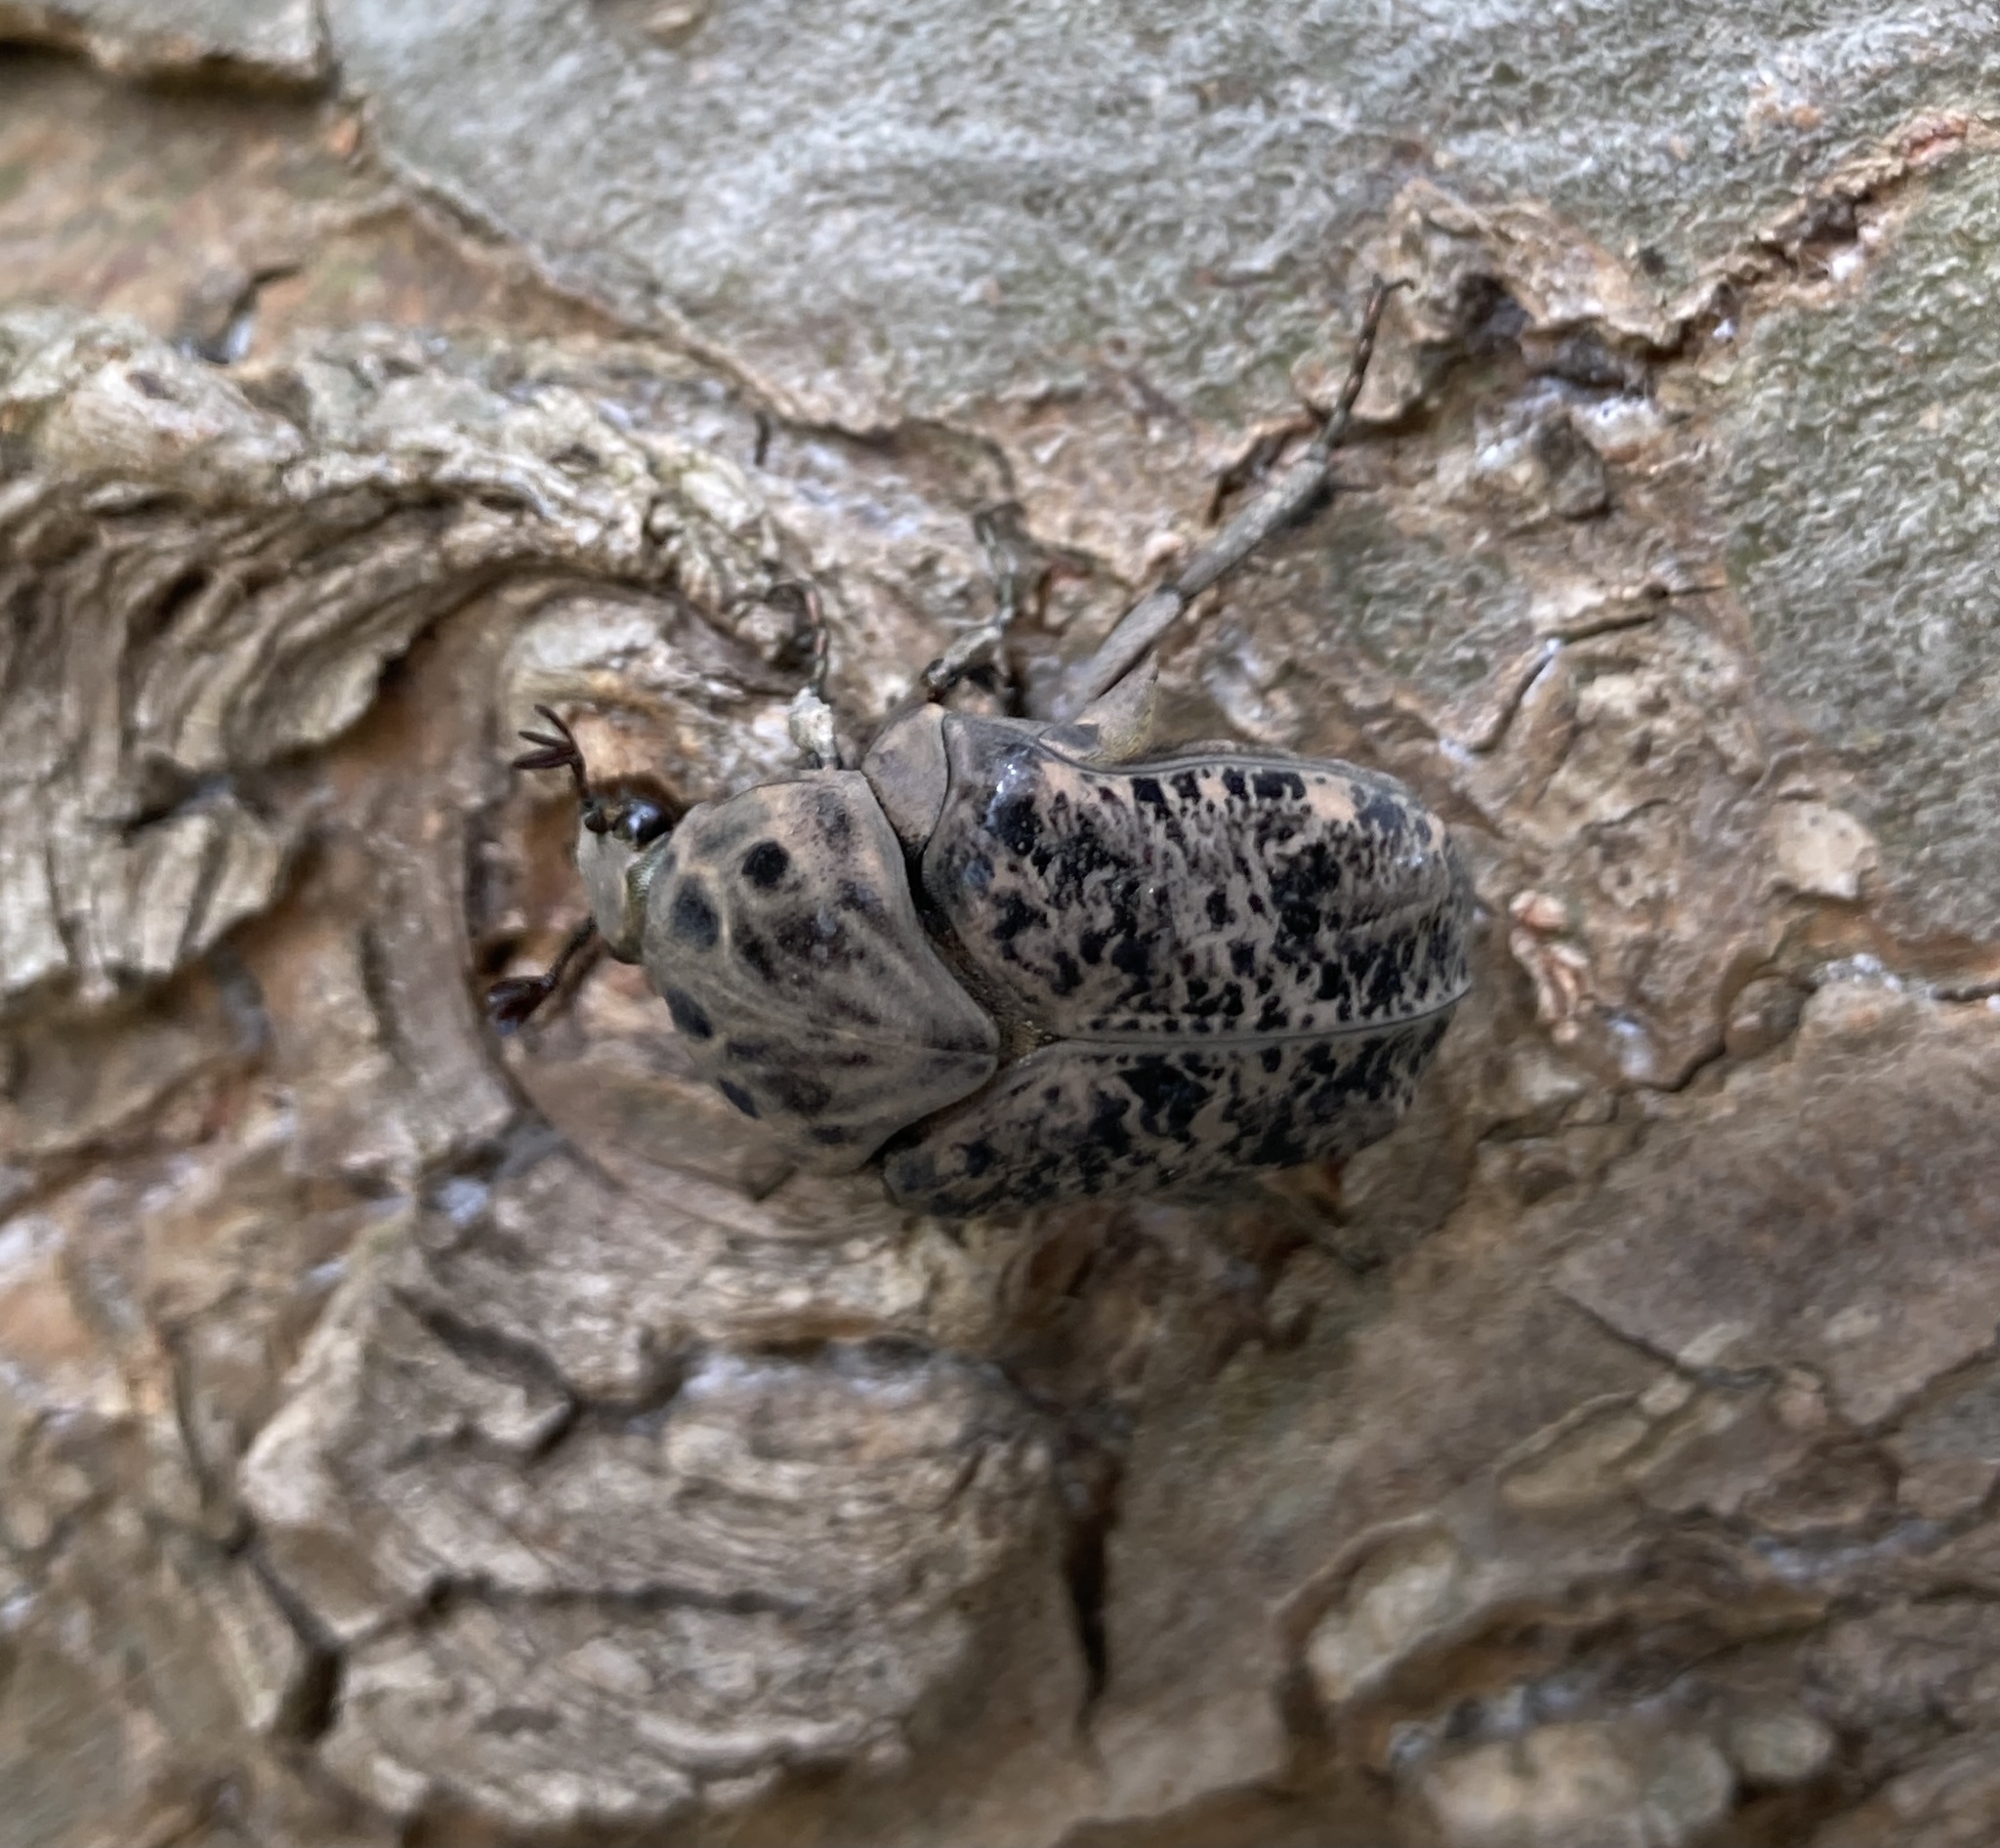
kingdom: Animalia
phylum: Arthropoda
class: Insecta
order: Coleoptera
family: Scarabaeidae
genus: Gymnetis
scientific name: Gymnetis chalcipes
